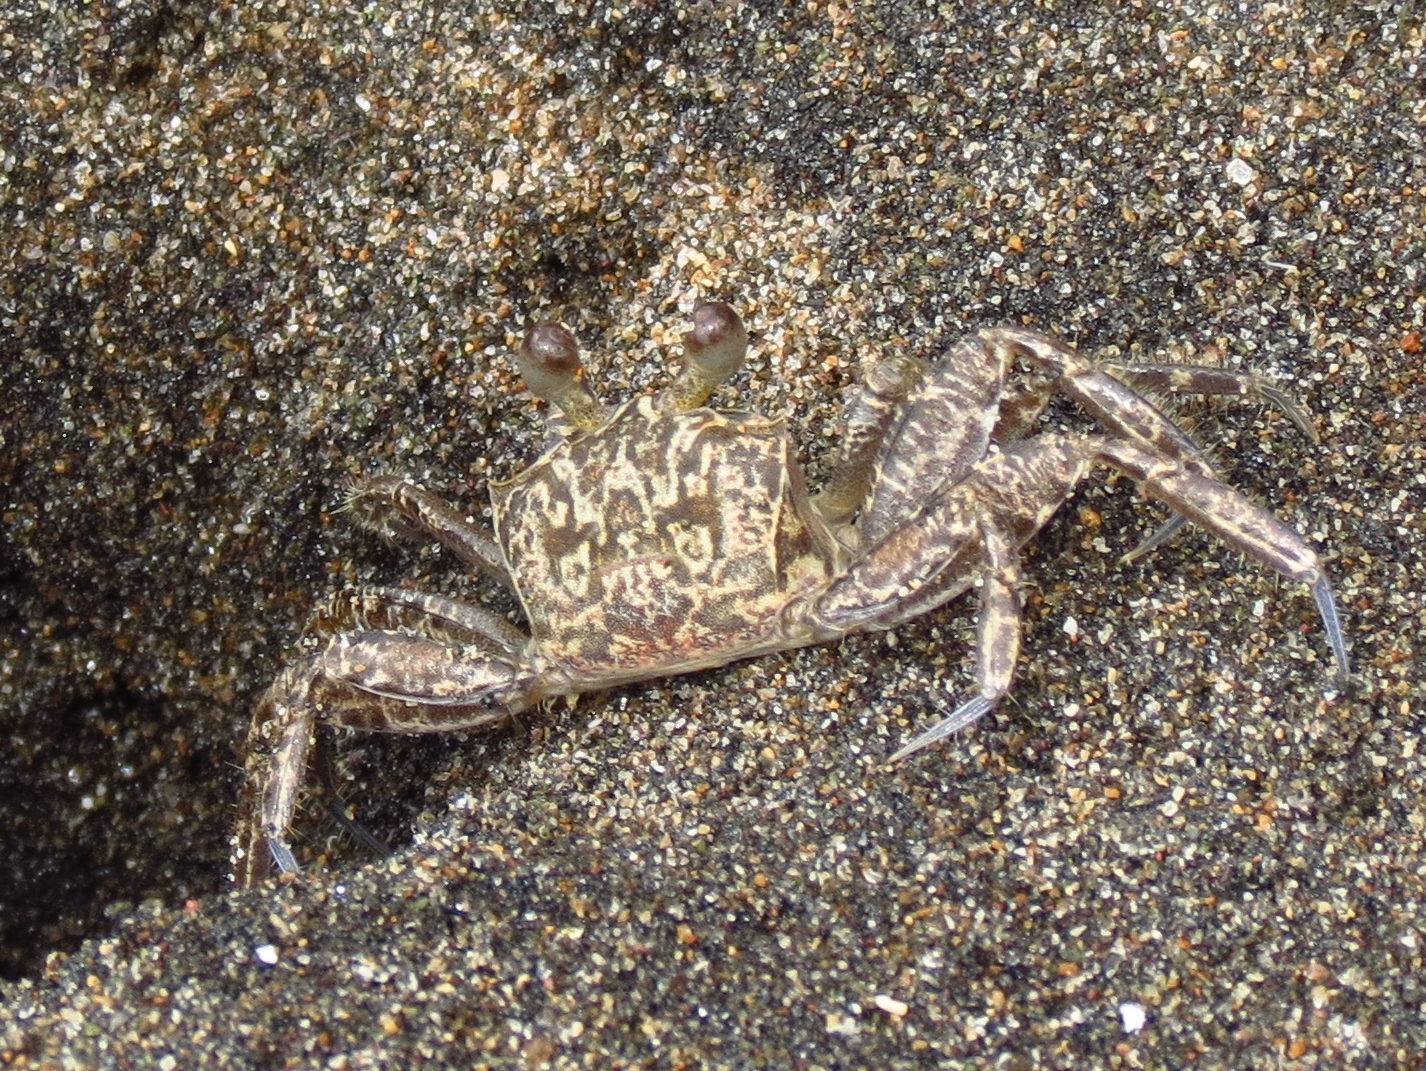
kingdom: Animalia
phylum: Arthropoda
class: Malacostraca
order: Decapoda
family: Ocypodidae
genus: Ocypode
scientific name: Ocypode quadrata
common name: Ghost crab
